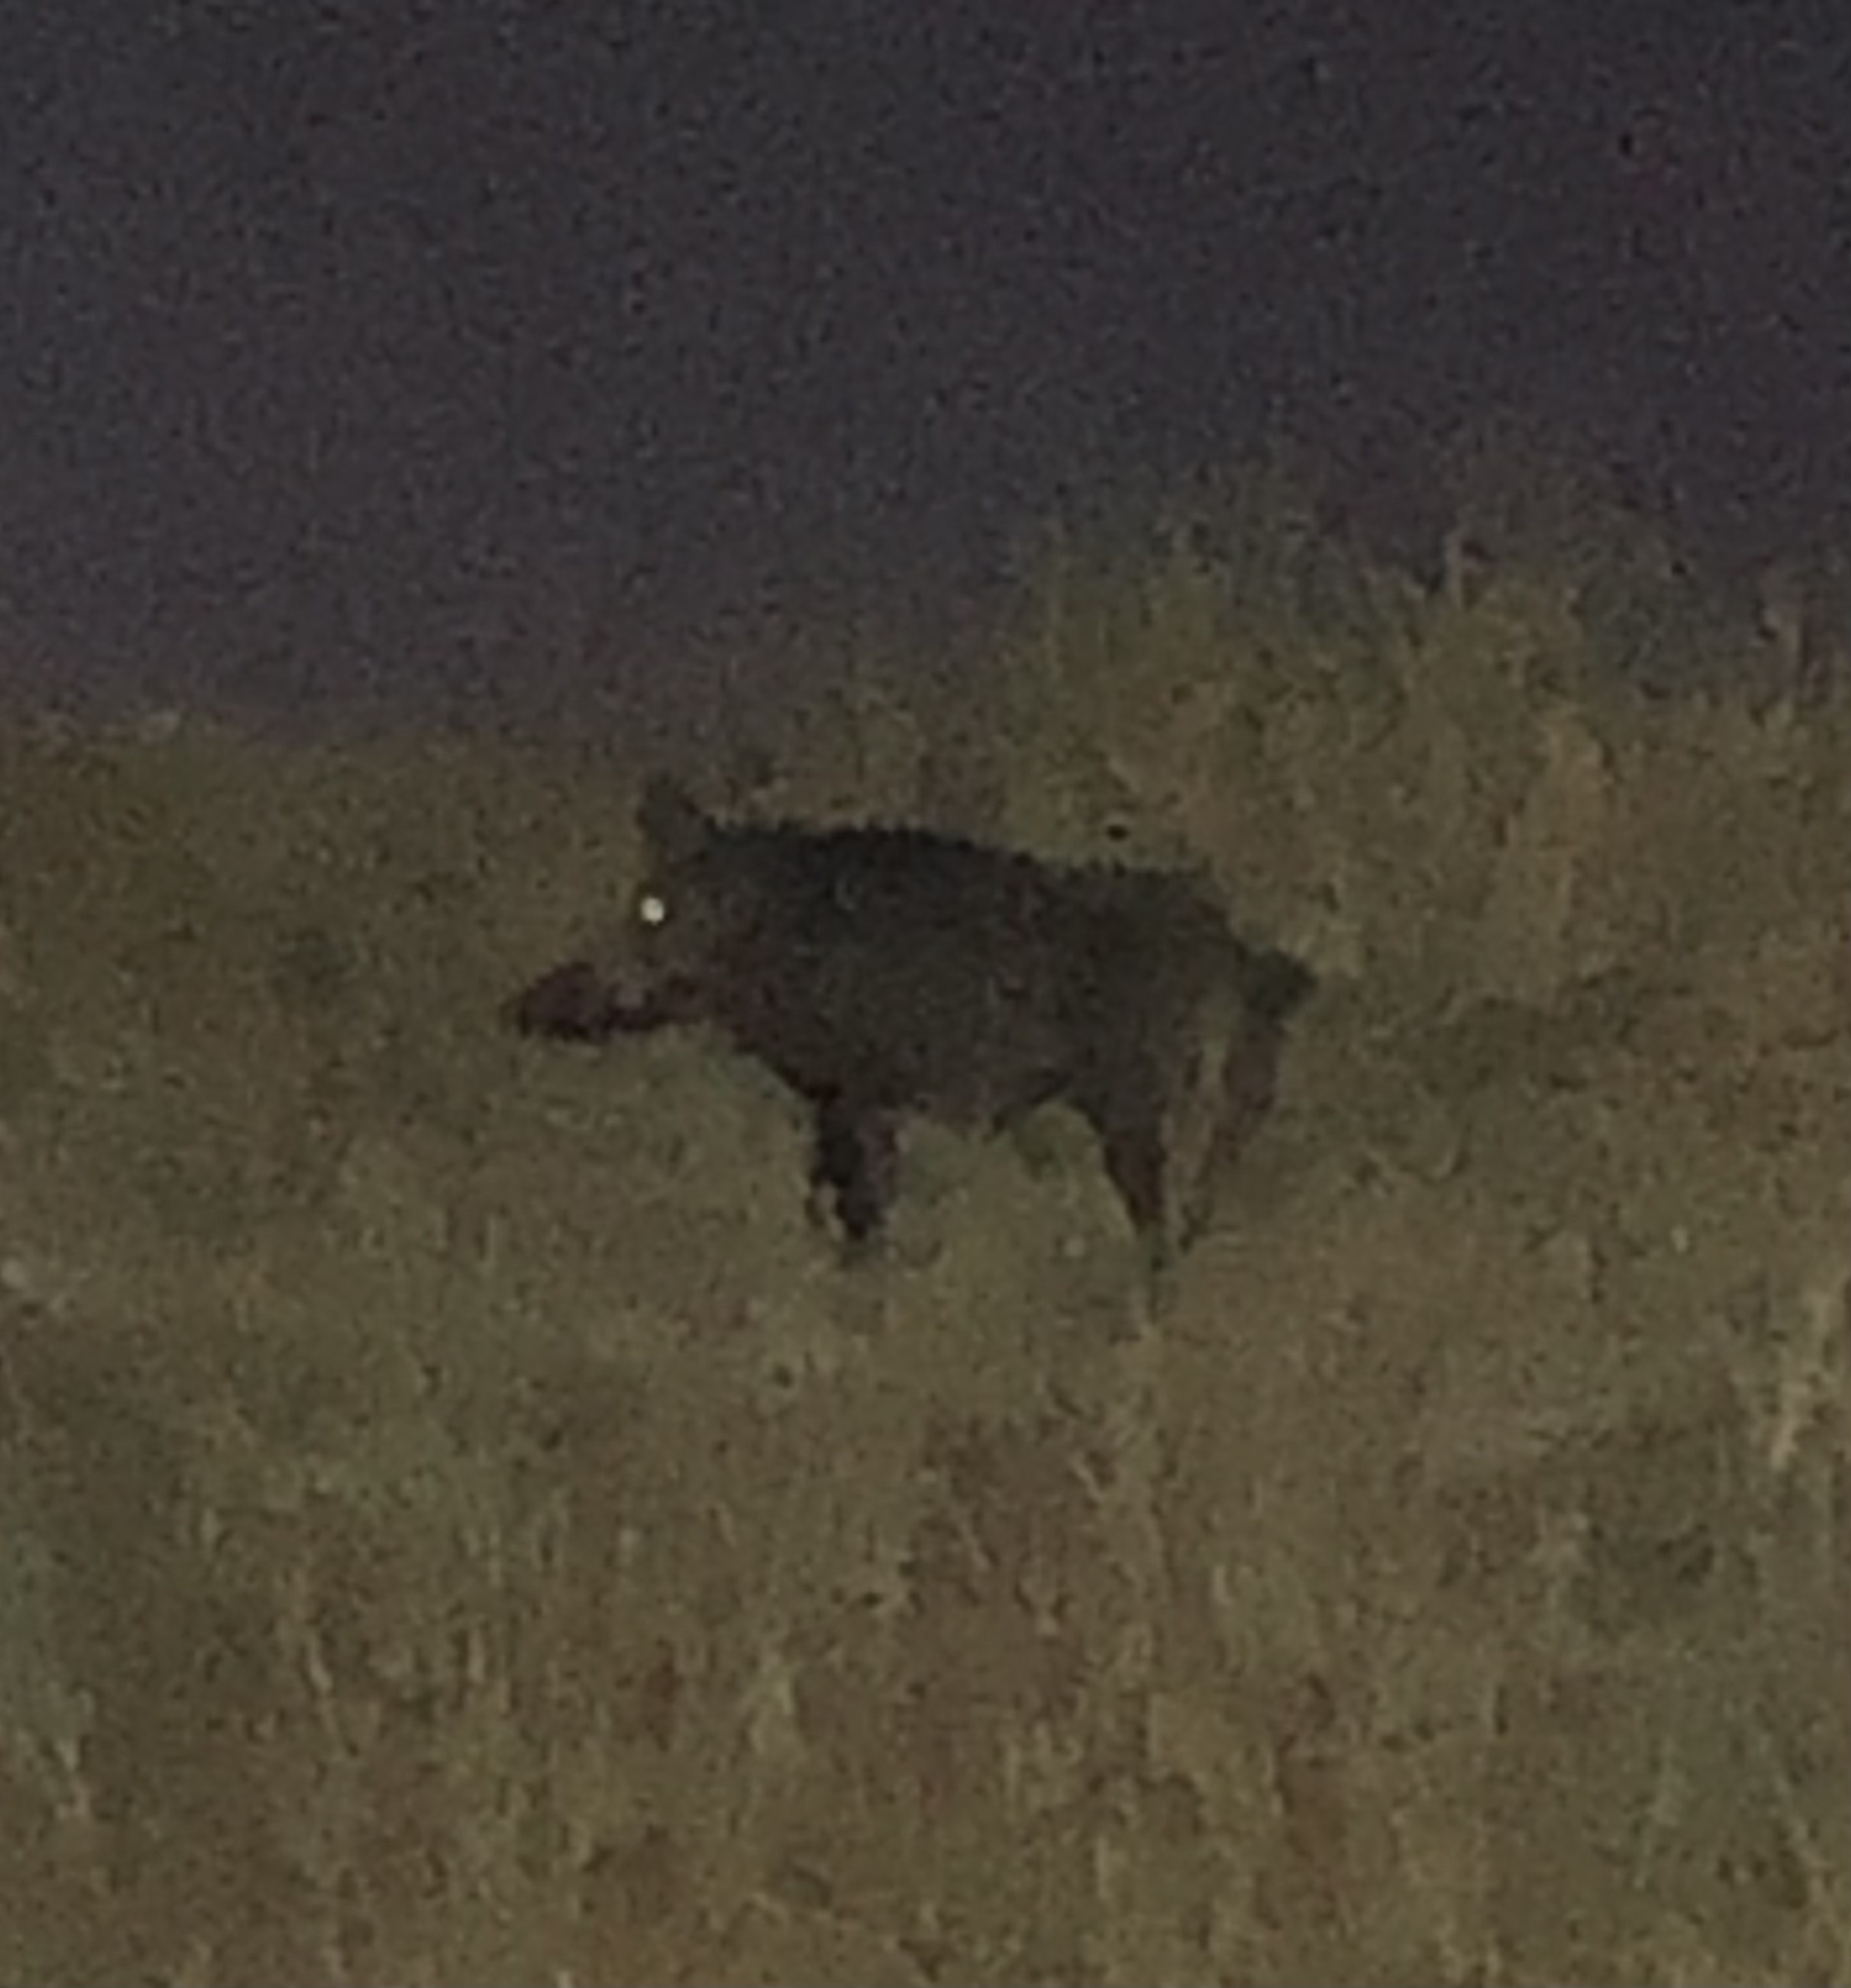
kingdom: Animalia
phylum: Chordata
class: Mammalia
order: Artiodactyla
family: Suidae
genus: Sus
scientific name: Sus scrofa
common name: Wild boar
